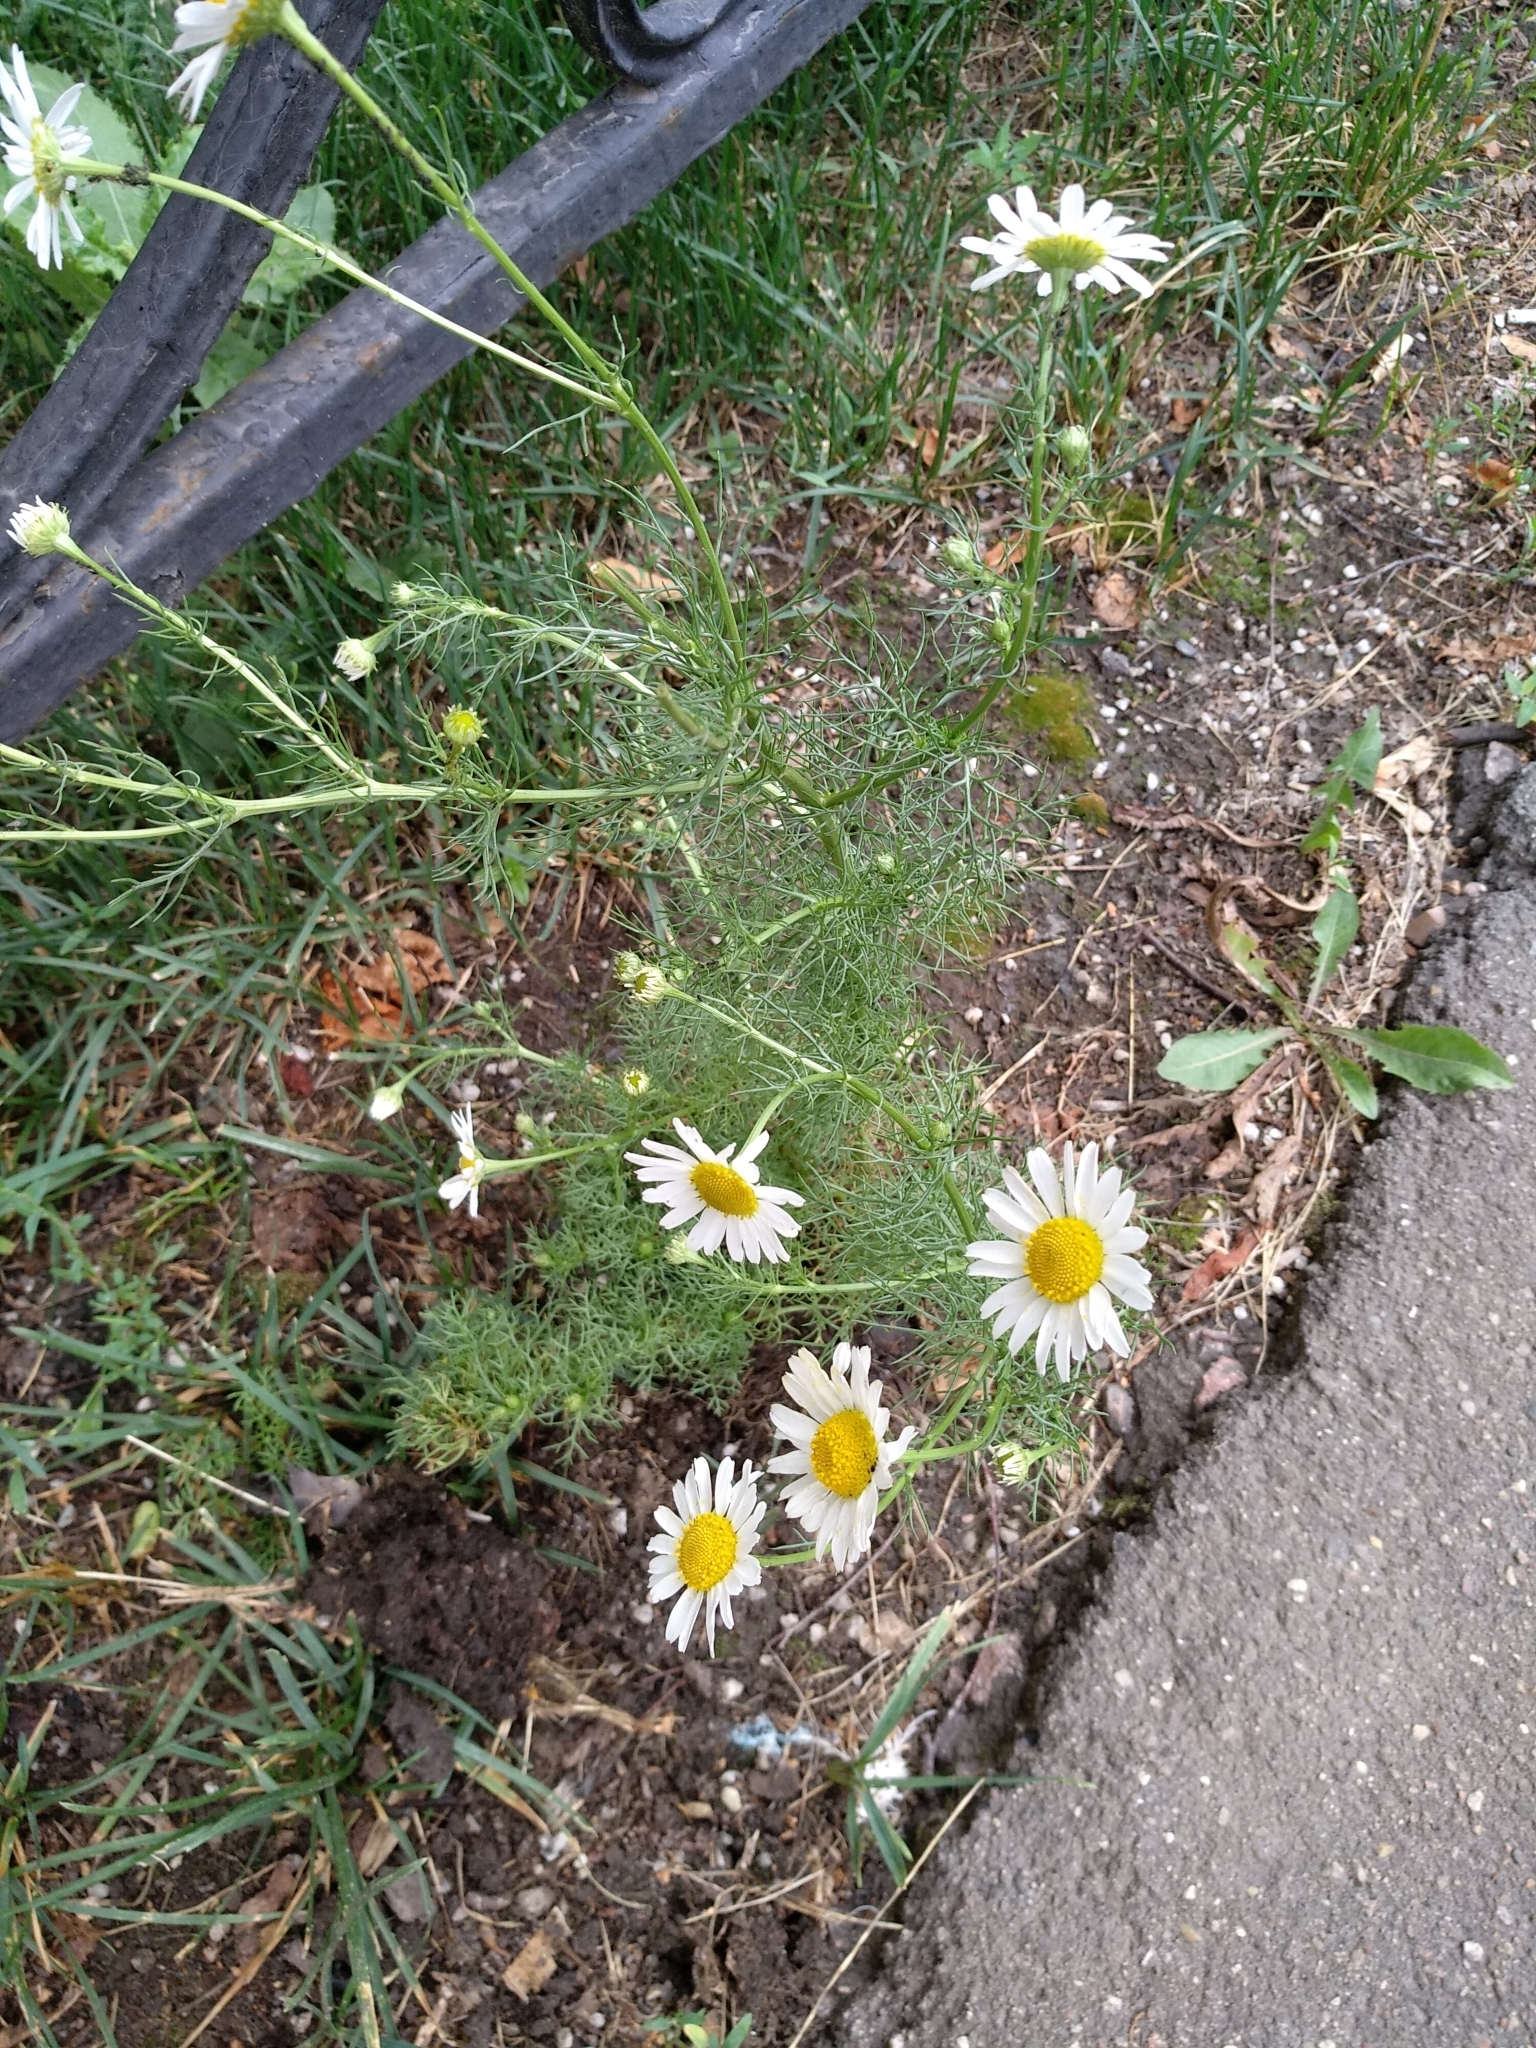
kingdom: Plantae
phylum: Tracheophyta
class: Magnoliopsida
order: Asterales
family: Asteraceae
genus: Tripleurospermum
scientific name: Tripleurospermum inodorum
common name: Scentless mayweed
